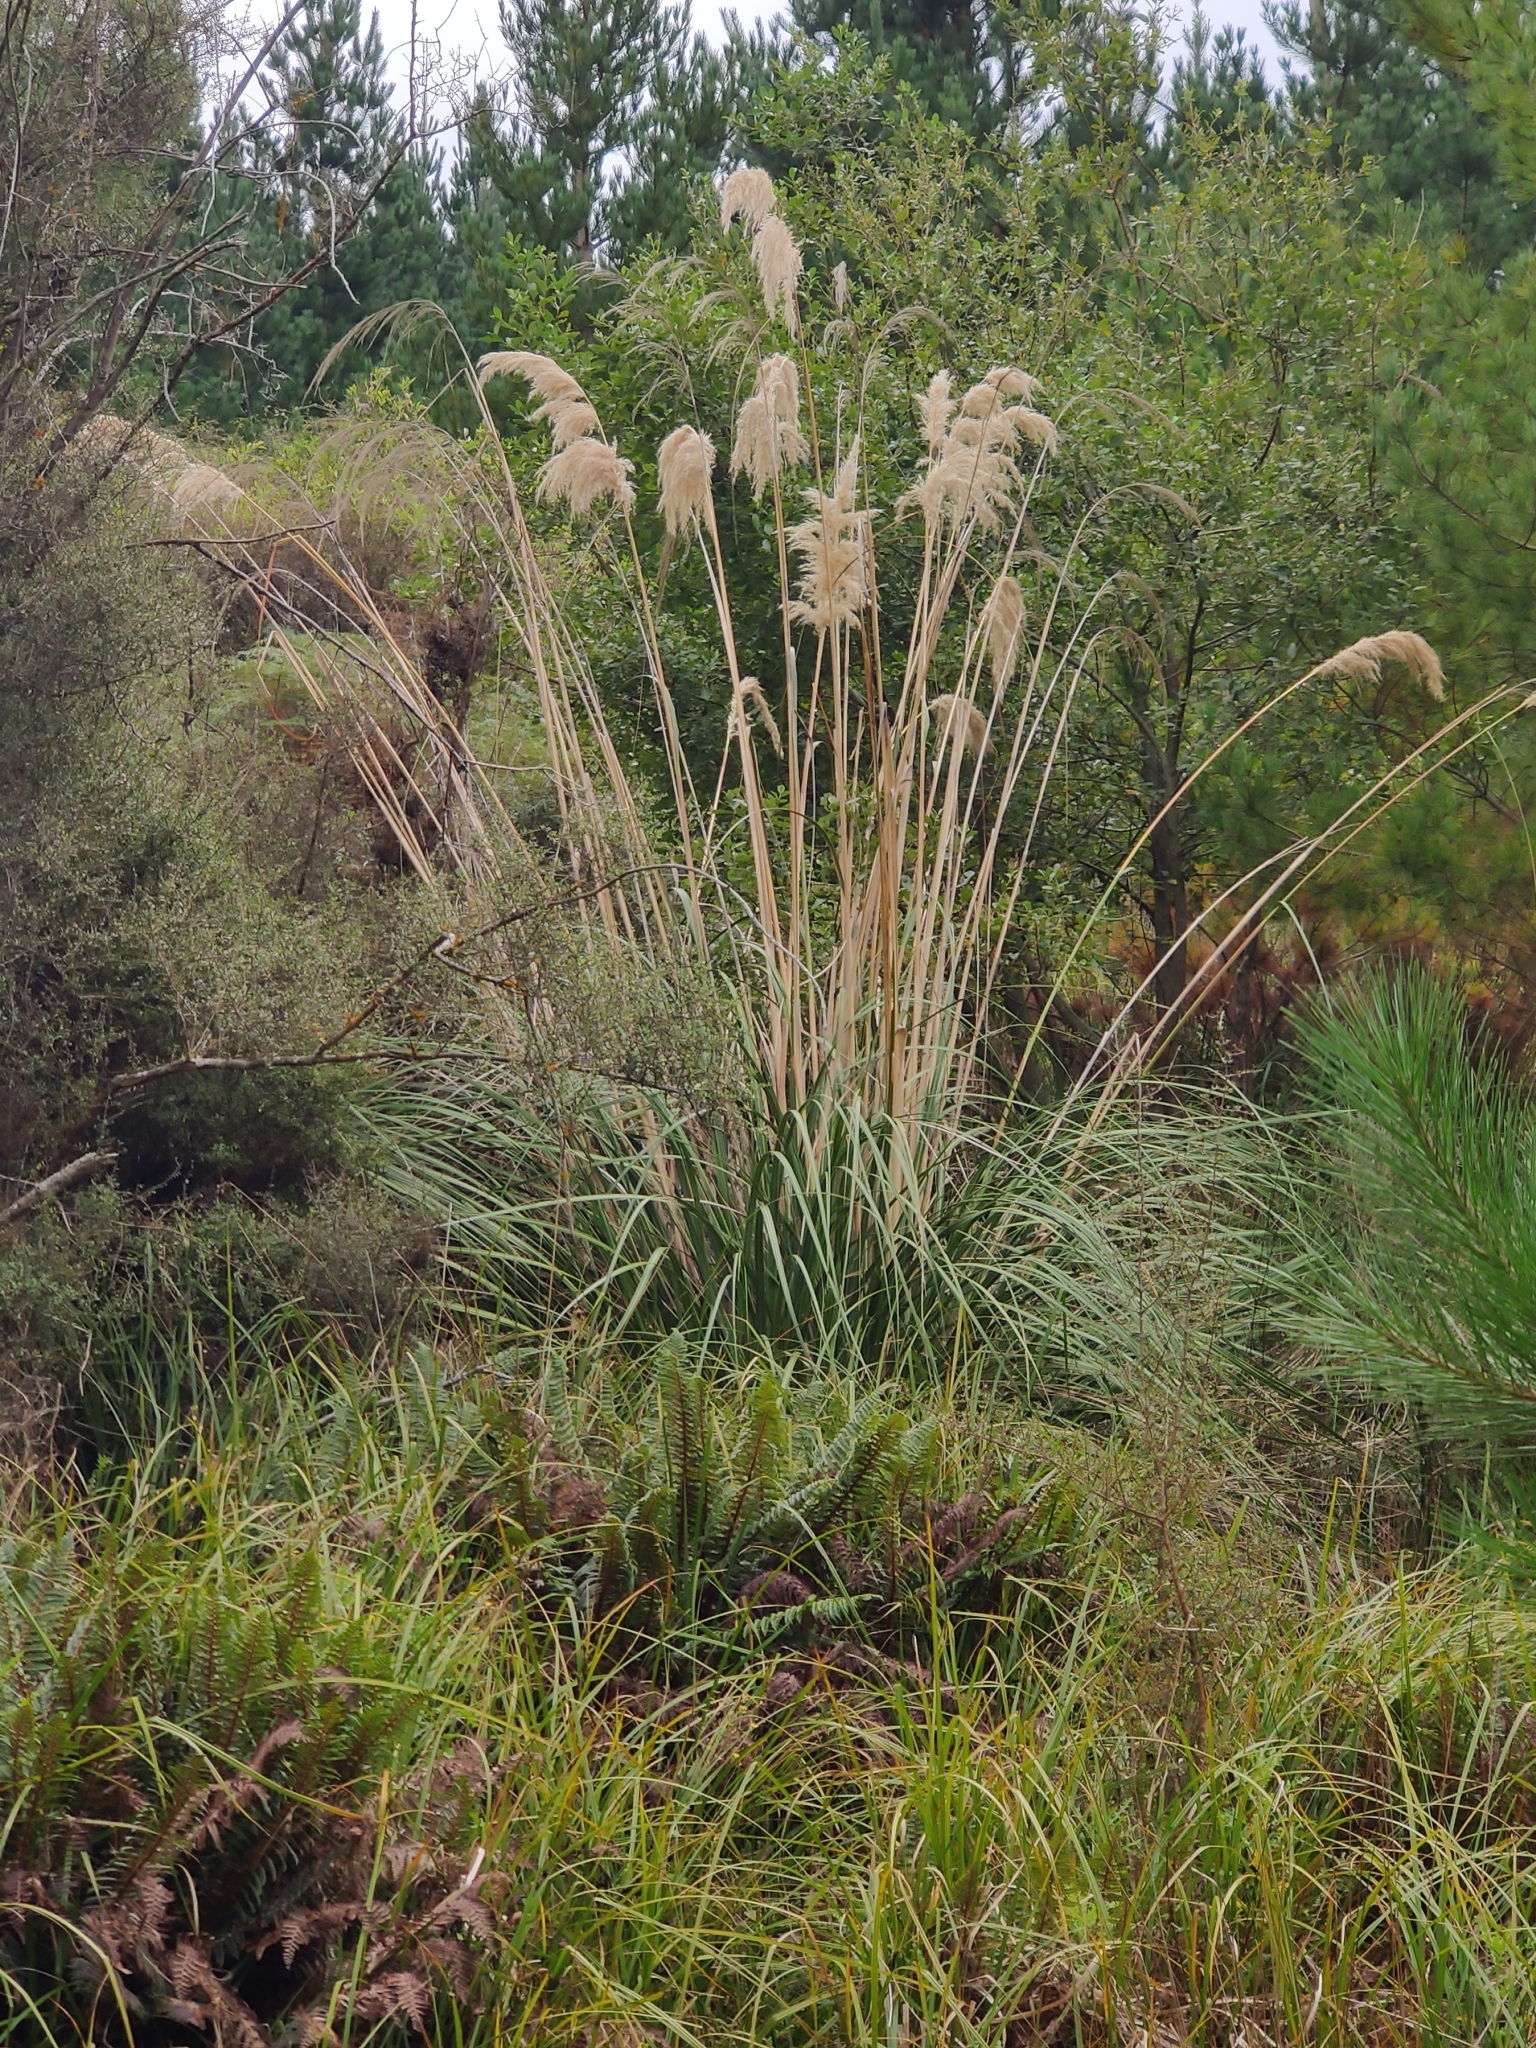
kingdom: Plantae
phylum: Tracheophyta
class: Liliopsida
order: Poales
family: Poaceae
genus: Austroderia
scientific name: Austroderia richardii
